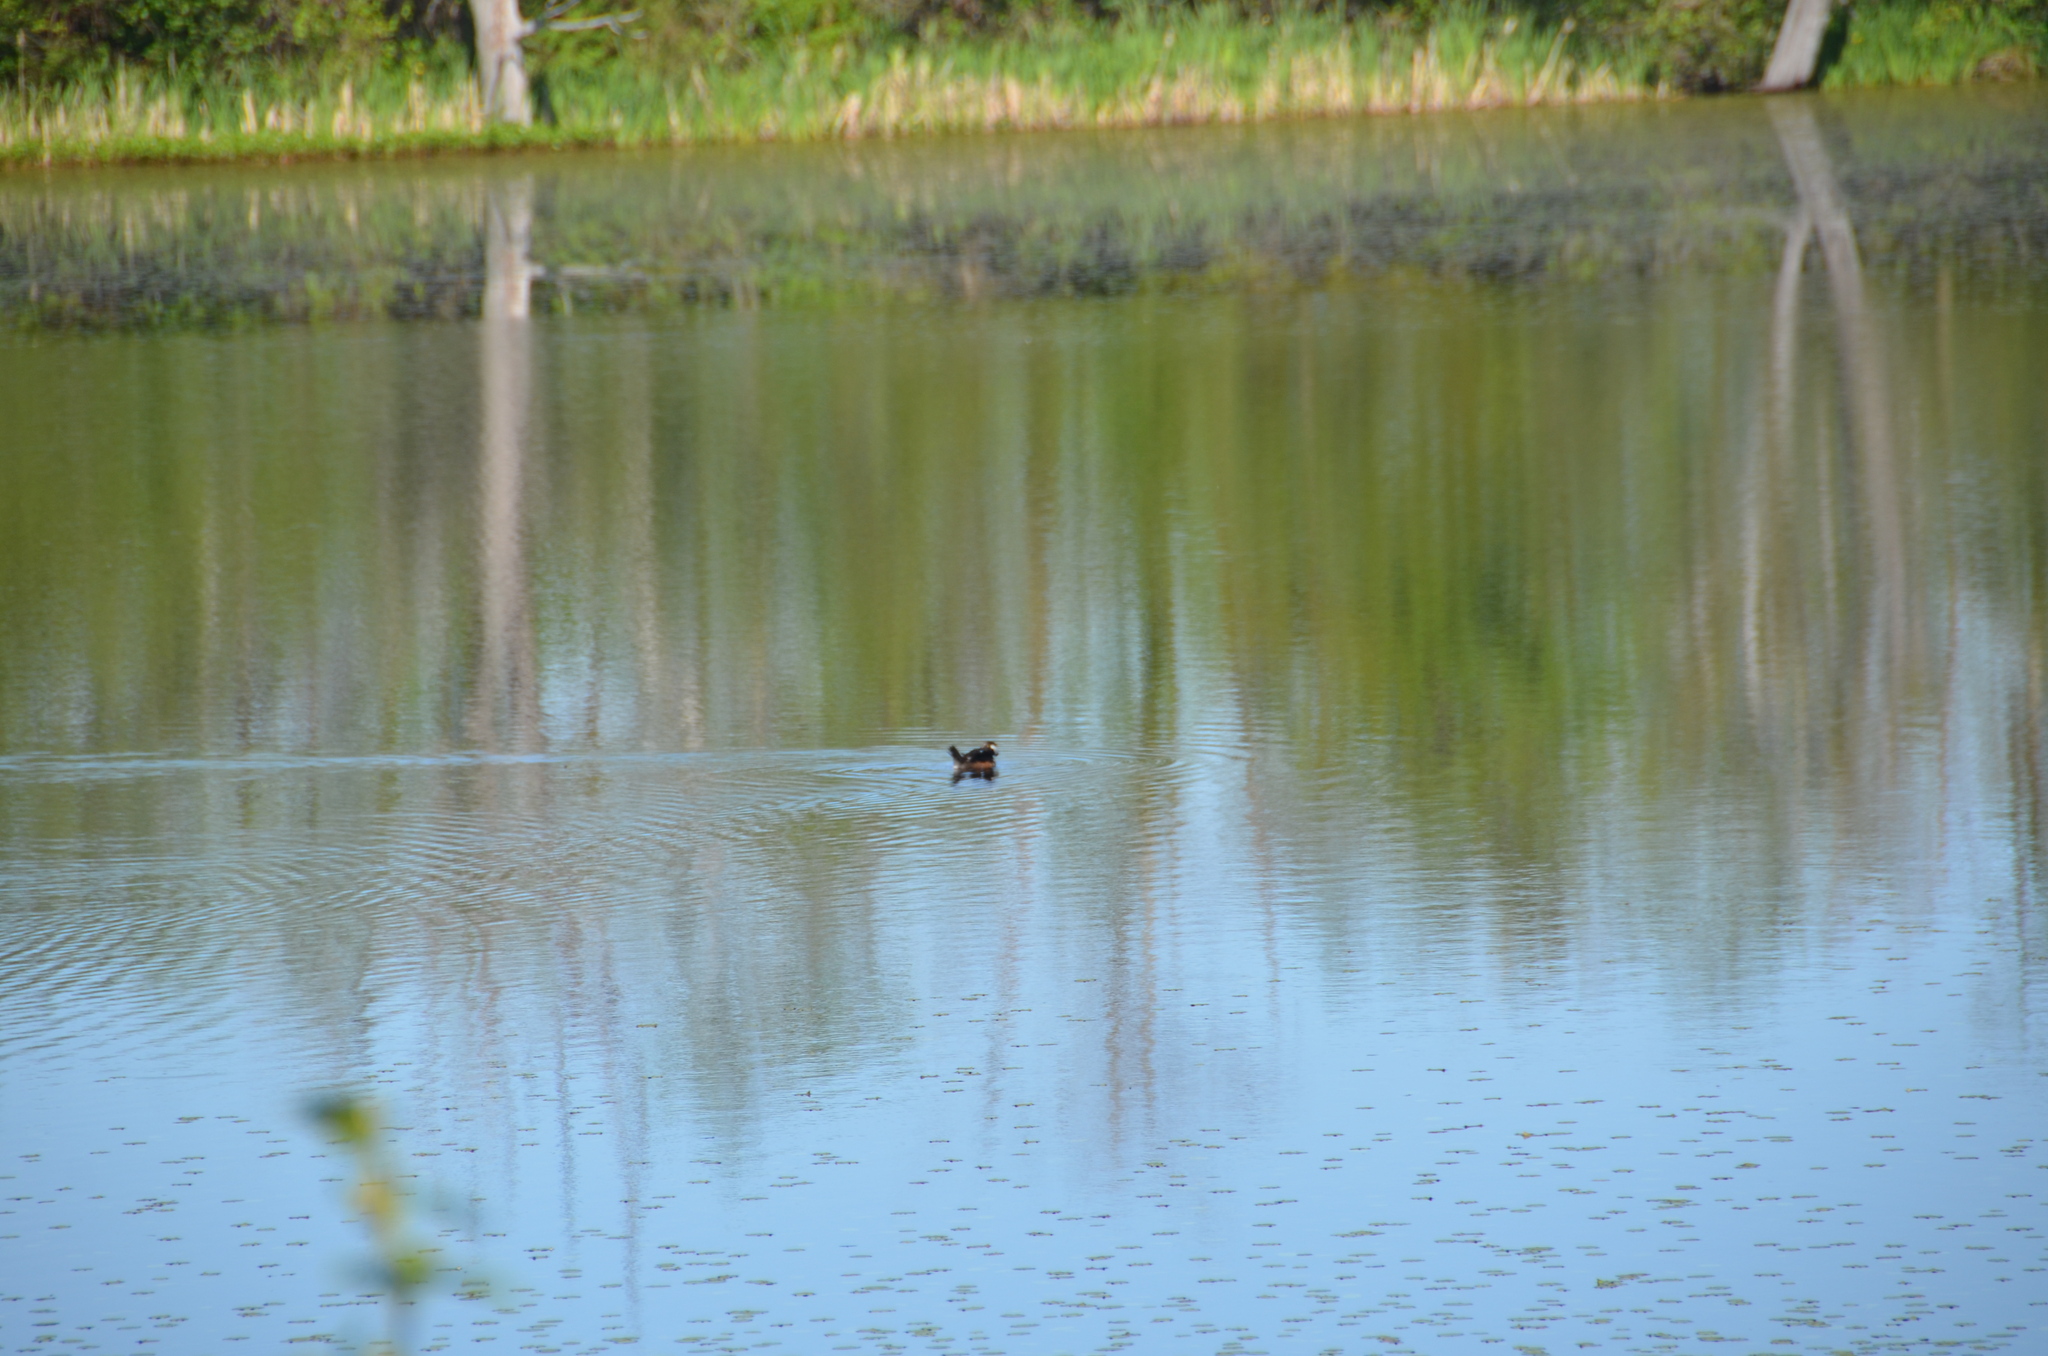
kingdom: Animalia
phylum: Chordata
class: Aves
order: Anseriformes
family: Anatidae
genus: Lophodytes
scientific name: Lophodytes cucullatus
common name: Hooded merganser
